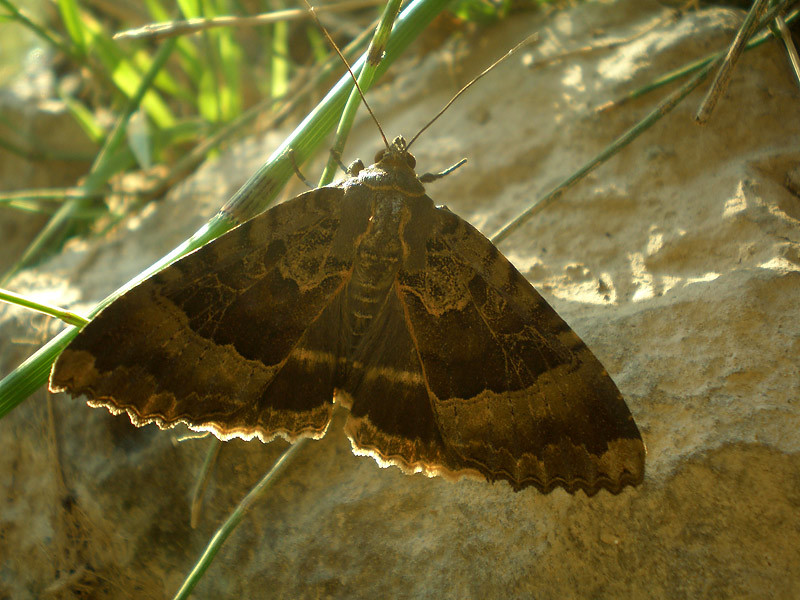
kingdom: Animalia
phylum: Arthropoda
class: Insecta
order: Lepidoptera
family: Noctuidae
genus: Mormo
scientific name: Mormo maura
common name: Old lady
